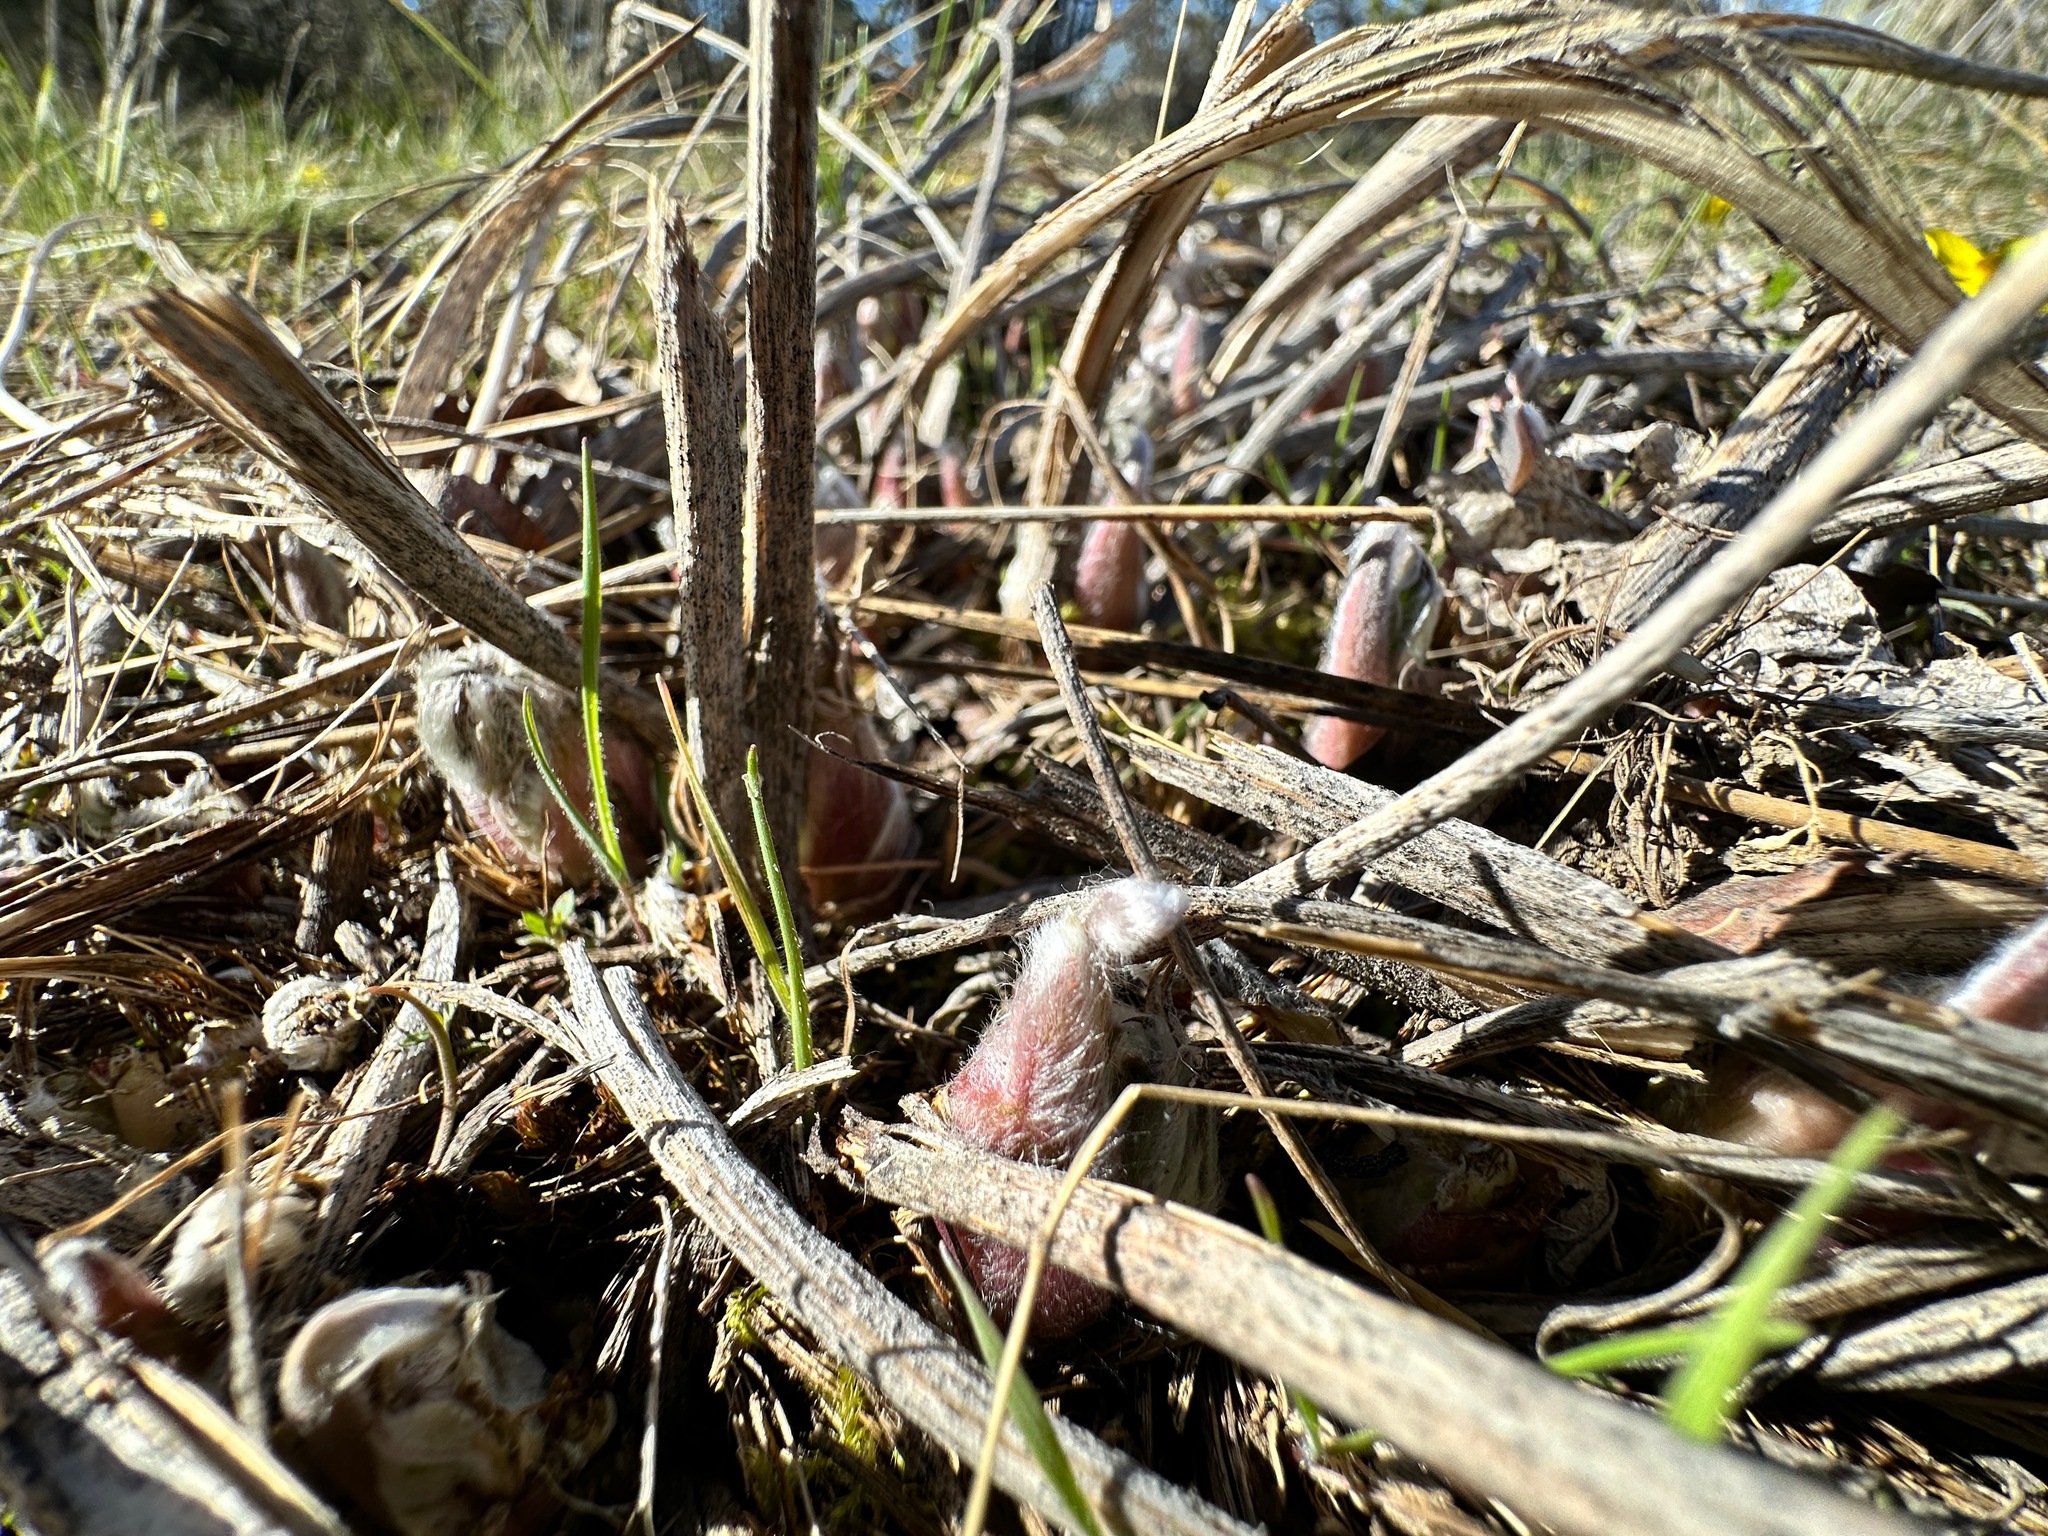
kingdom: Plantae
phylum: Tracheophyta
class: Magnoliopsida
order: Asterales
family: Asteraceae
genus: Wyethia
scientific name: Wyethia sagittata
